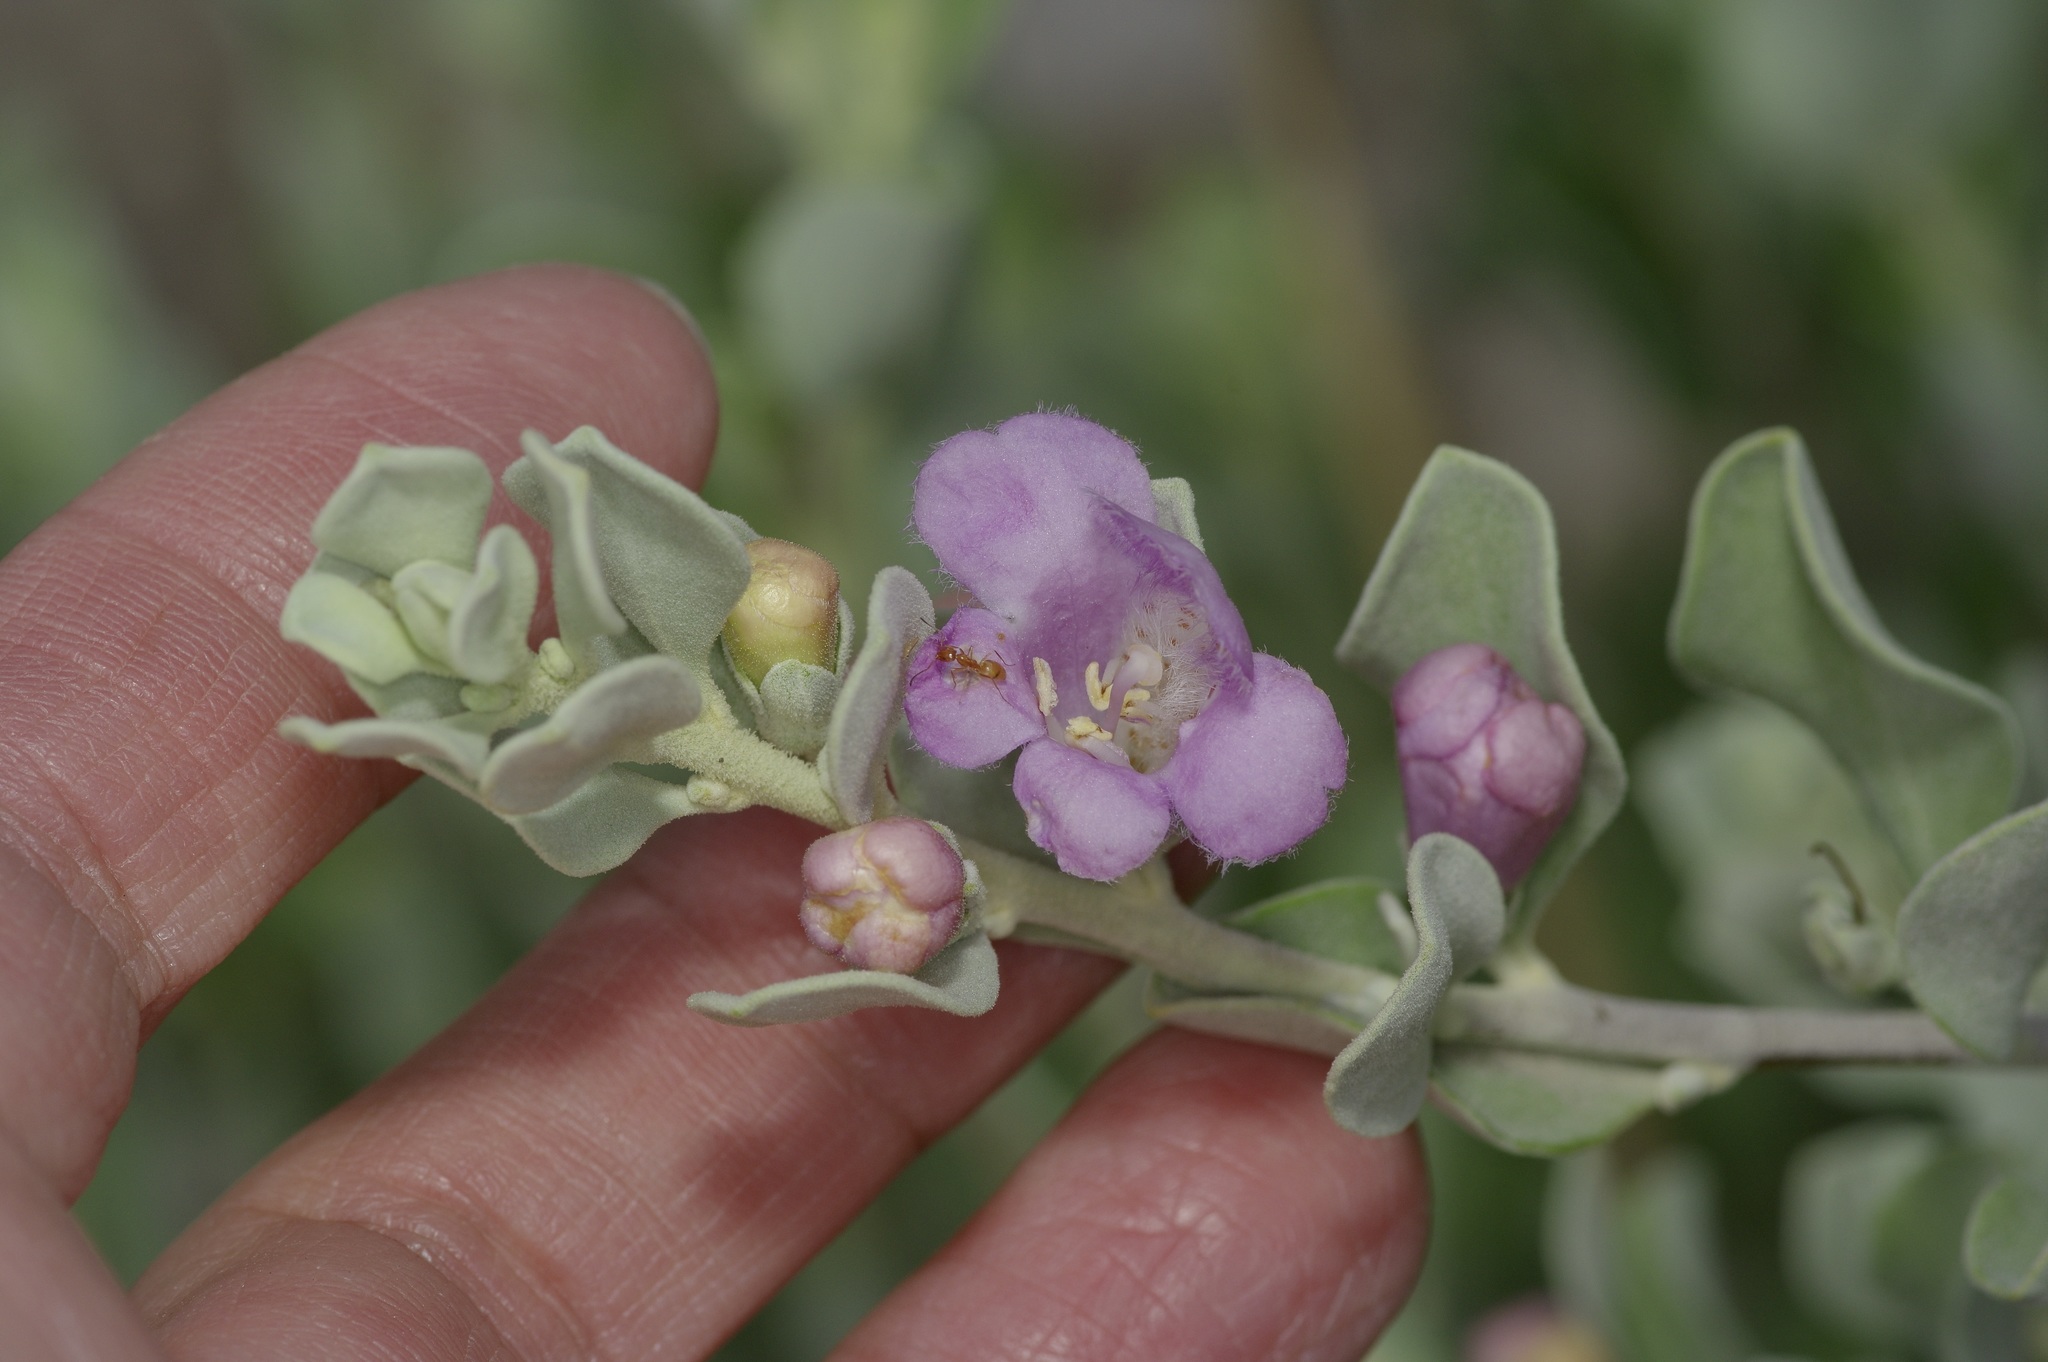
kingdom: Plantae
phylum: Tracheophyta
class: Magnoliopsida
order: Lamiales
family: Scrophulariaceae
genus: Leucophyllum
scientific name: Leucophyllum frutescens
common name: Texas silverleaf
